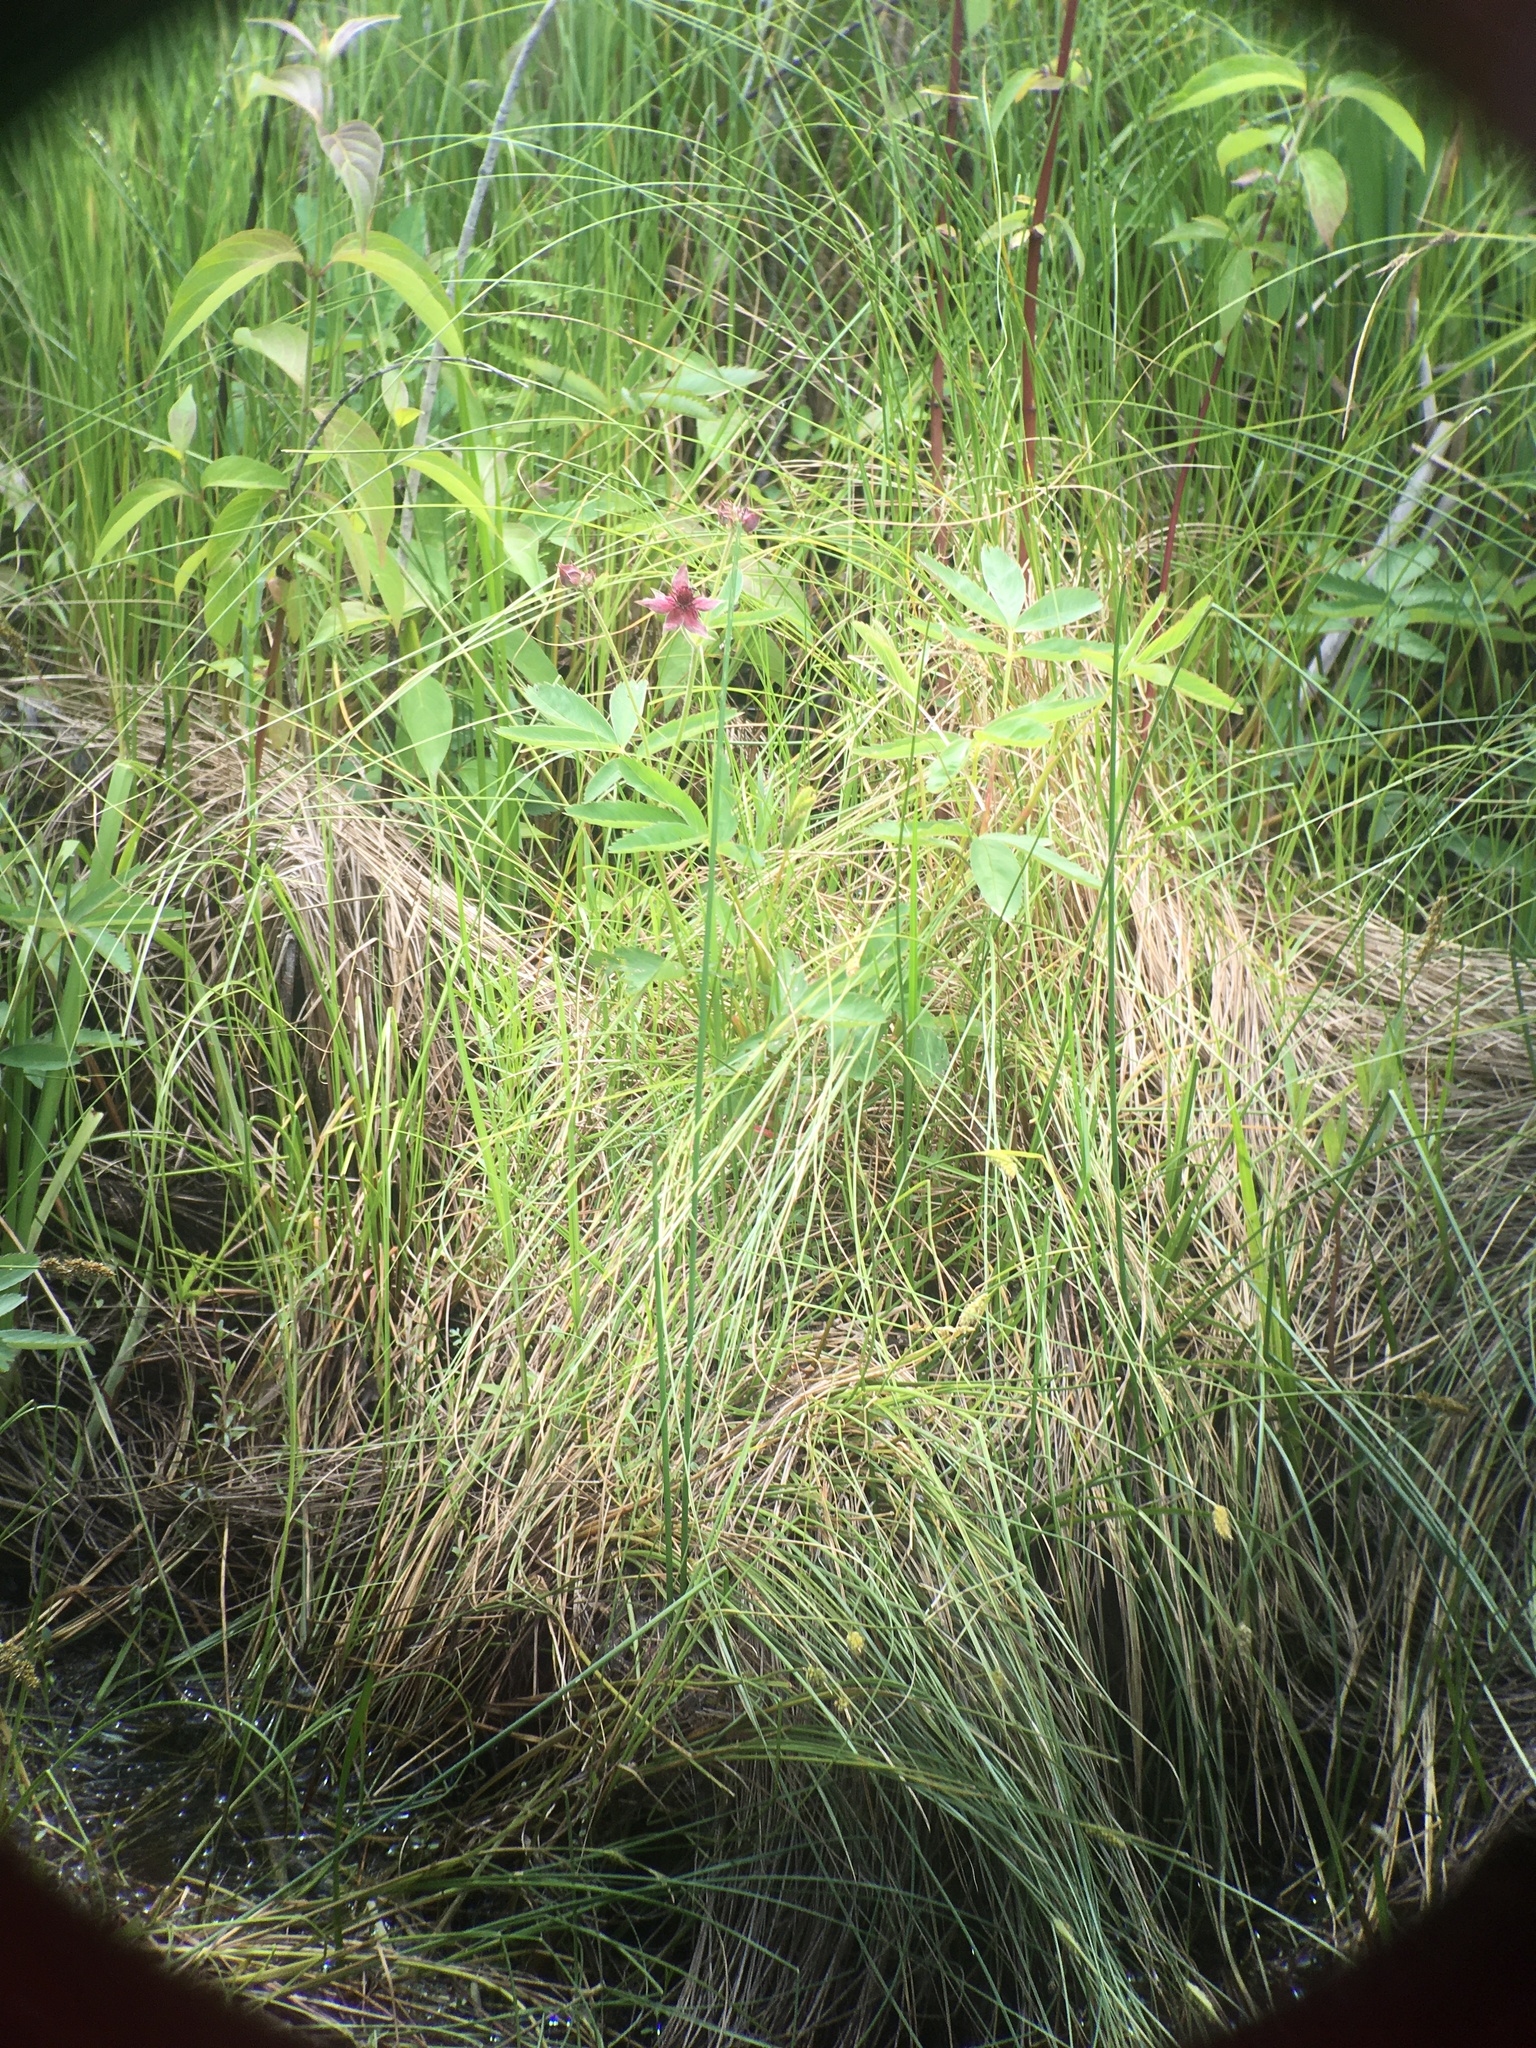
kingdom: Plantae
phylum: Tracheophyta
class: Magnoliopsida
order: Rosales
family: Rosaceae
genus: Comarum
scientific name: Comarum palustre
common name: Marsh cinquefoil
